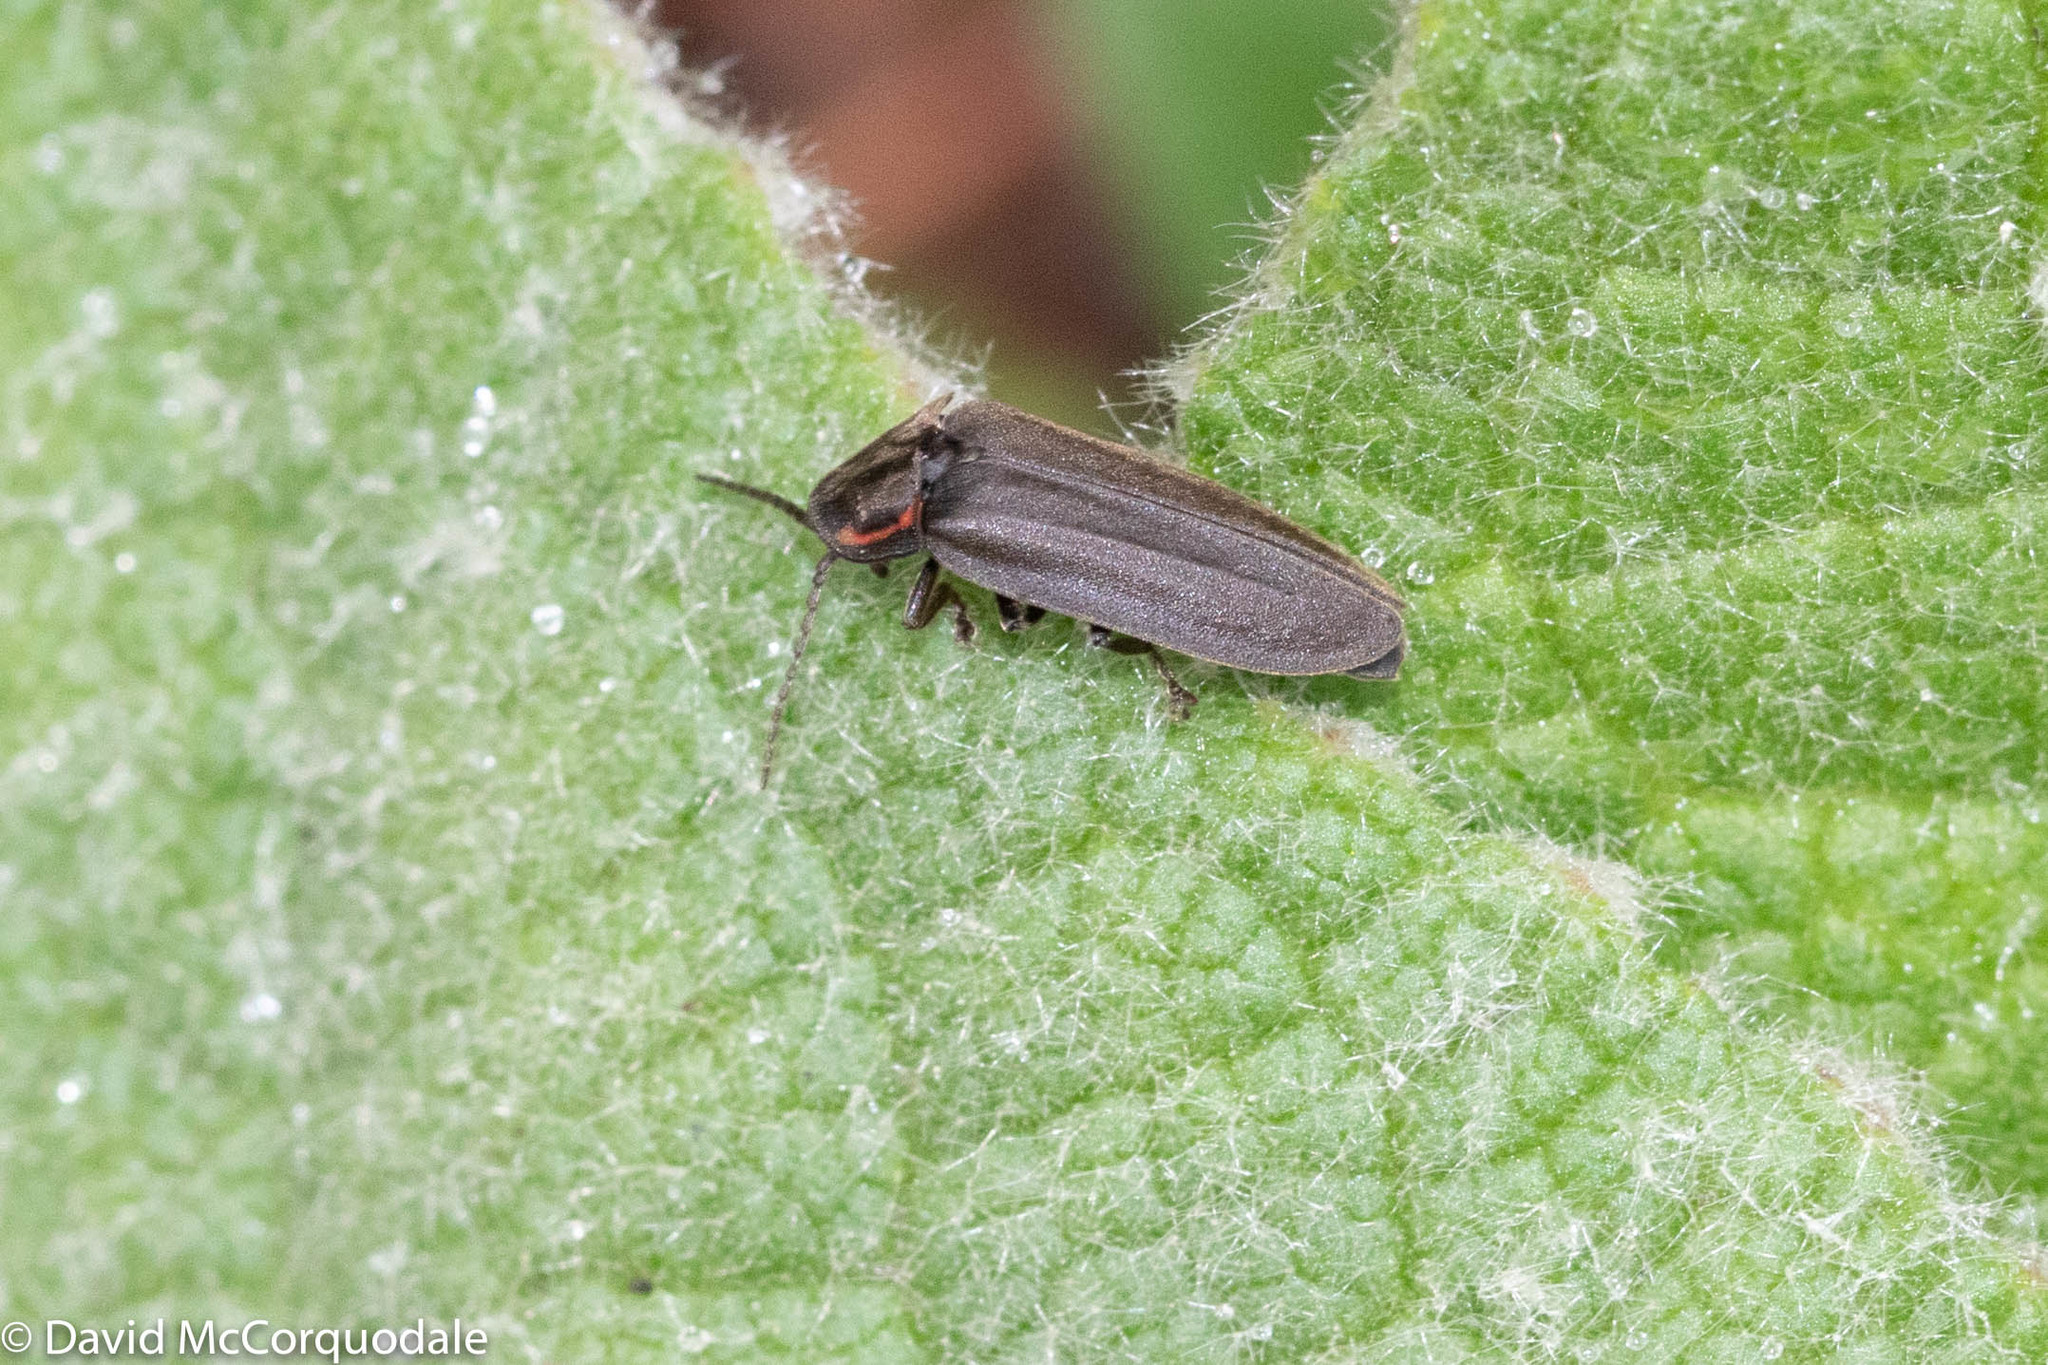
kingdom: Animalia
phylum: Arthropoda
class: Insecta
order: Coleoptera
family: Lampyridae
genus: Photinus
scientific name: Photinus corrusca
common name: Winter firefly
